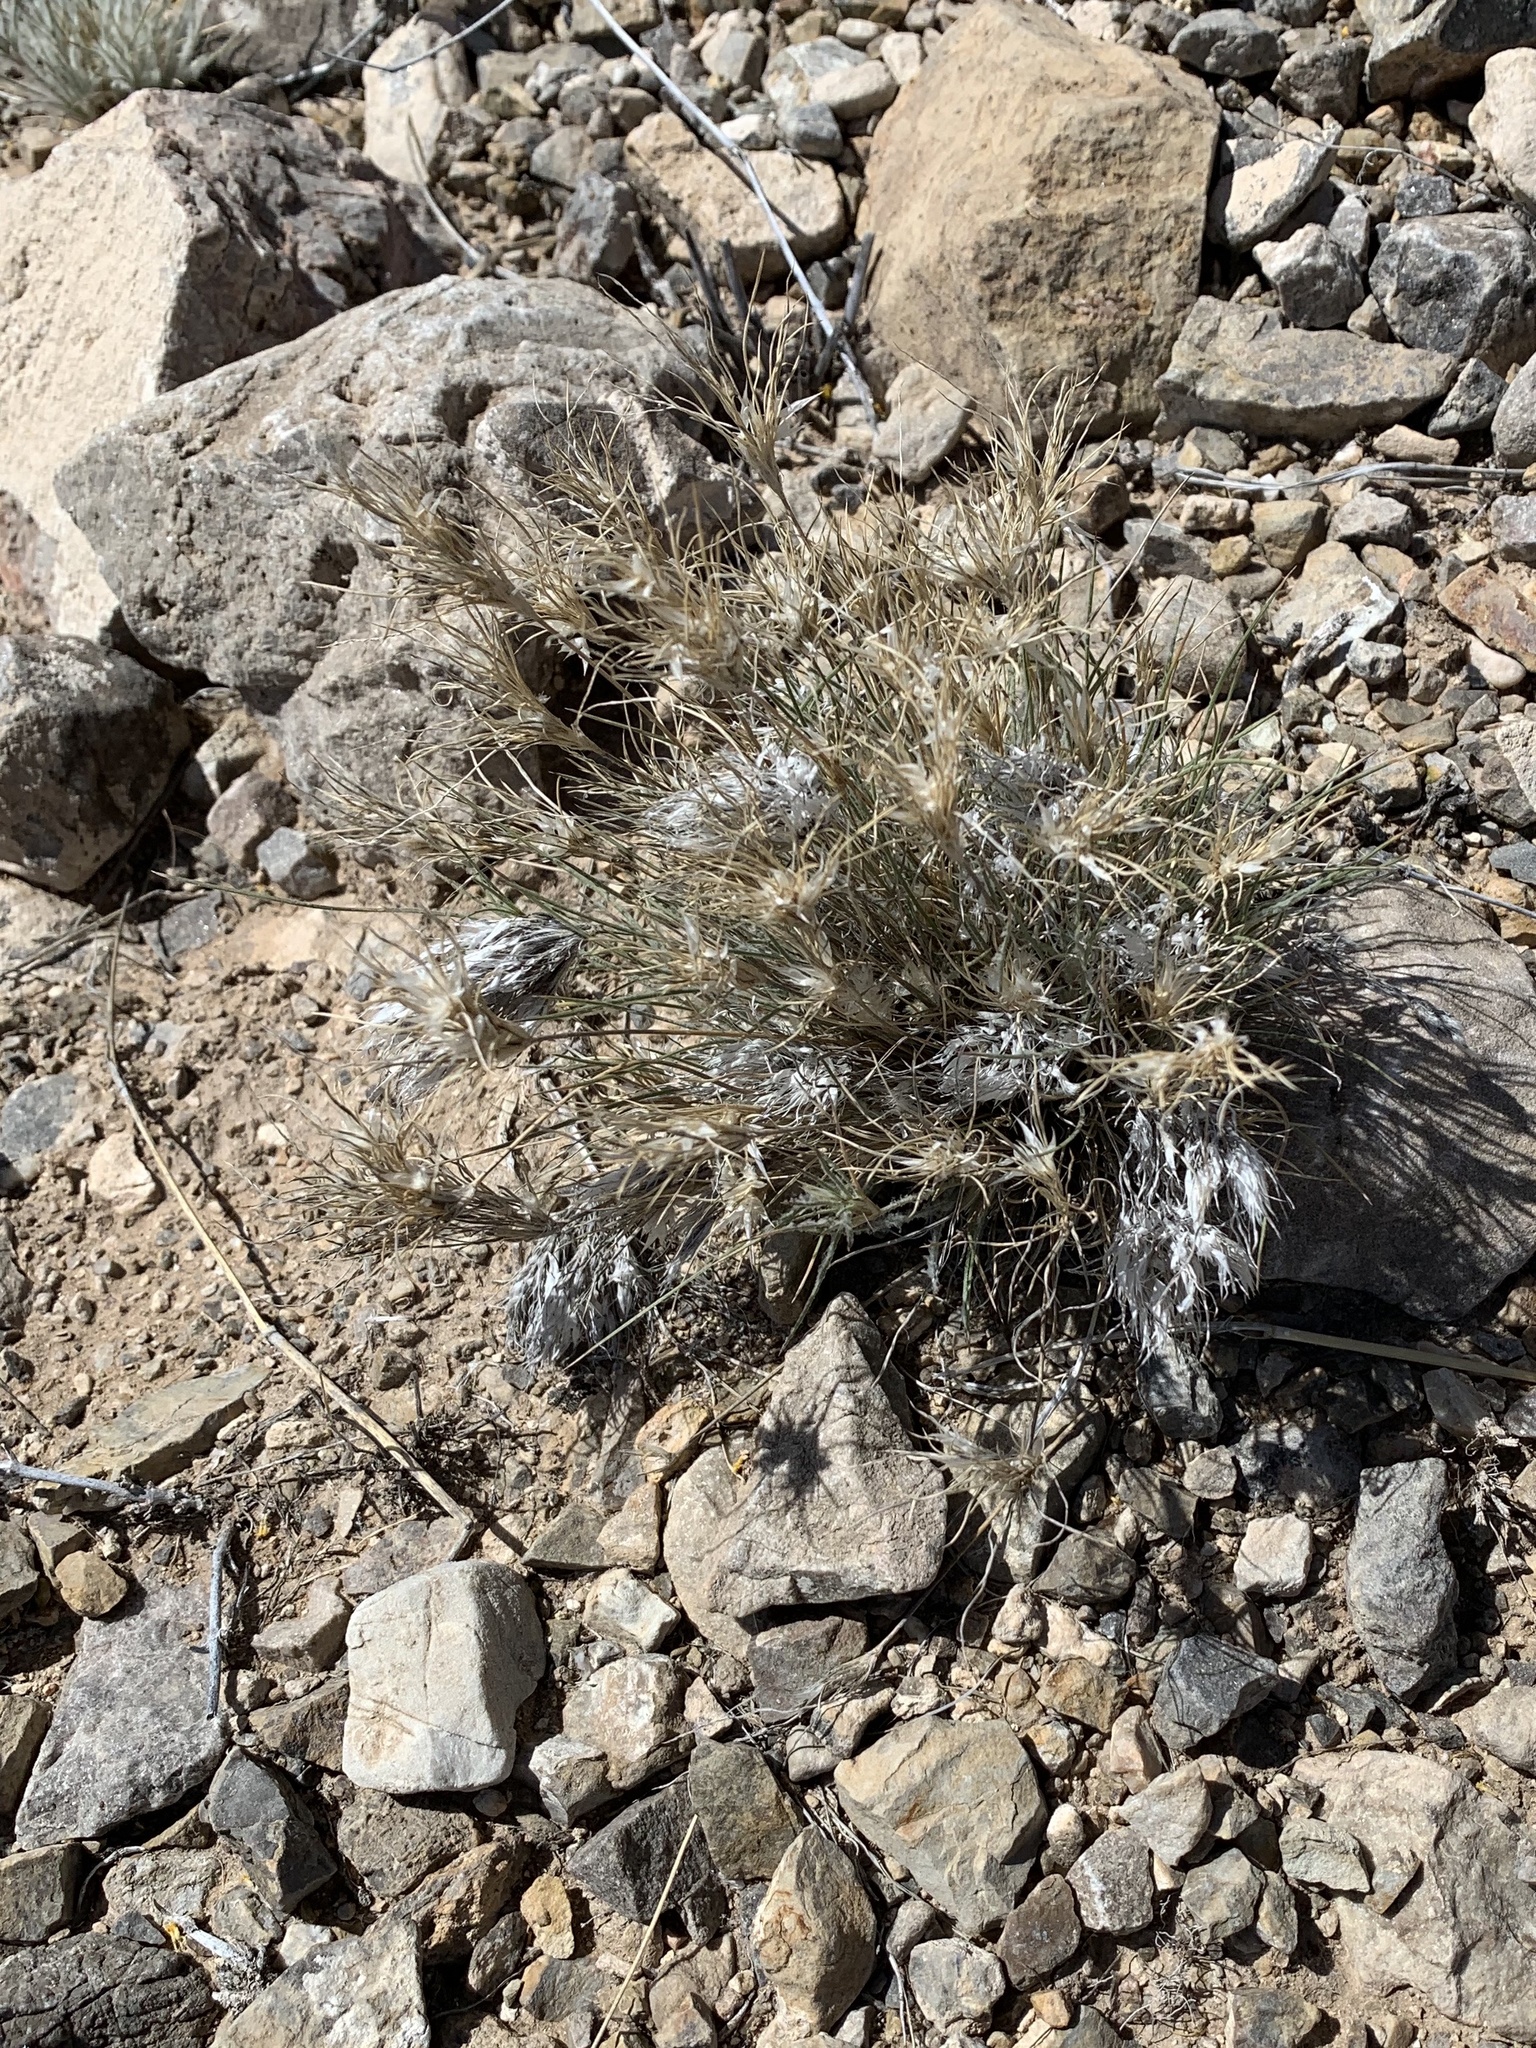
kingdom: Plantae
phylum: Tracheophyta
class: Liliopsida
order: Poales
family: Poaceae
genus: Dasyochloa
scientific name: Dasyochloa pulchella
